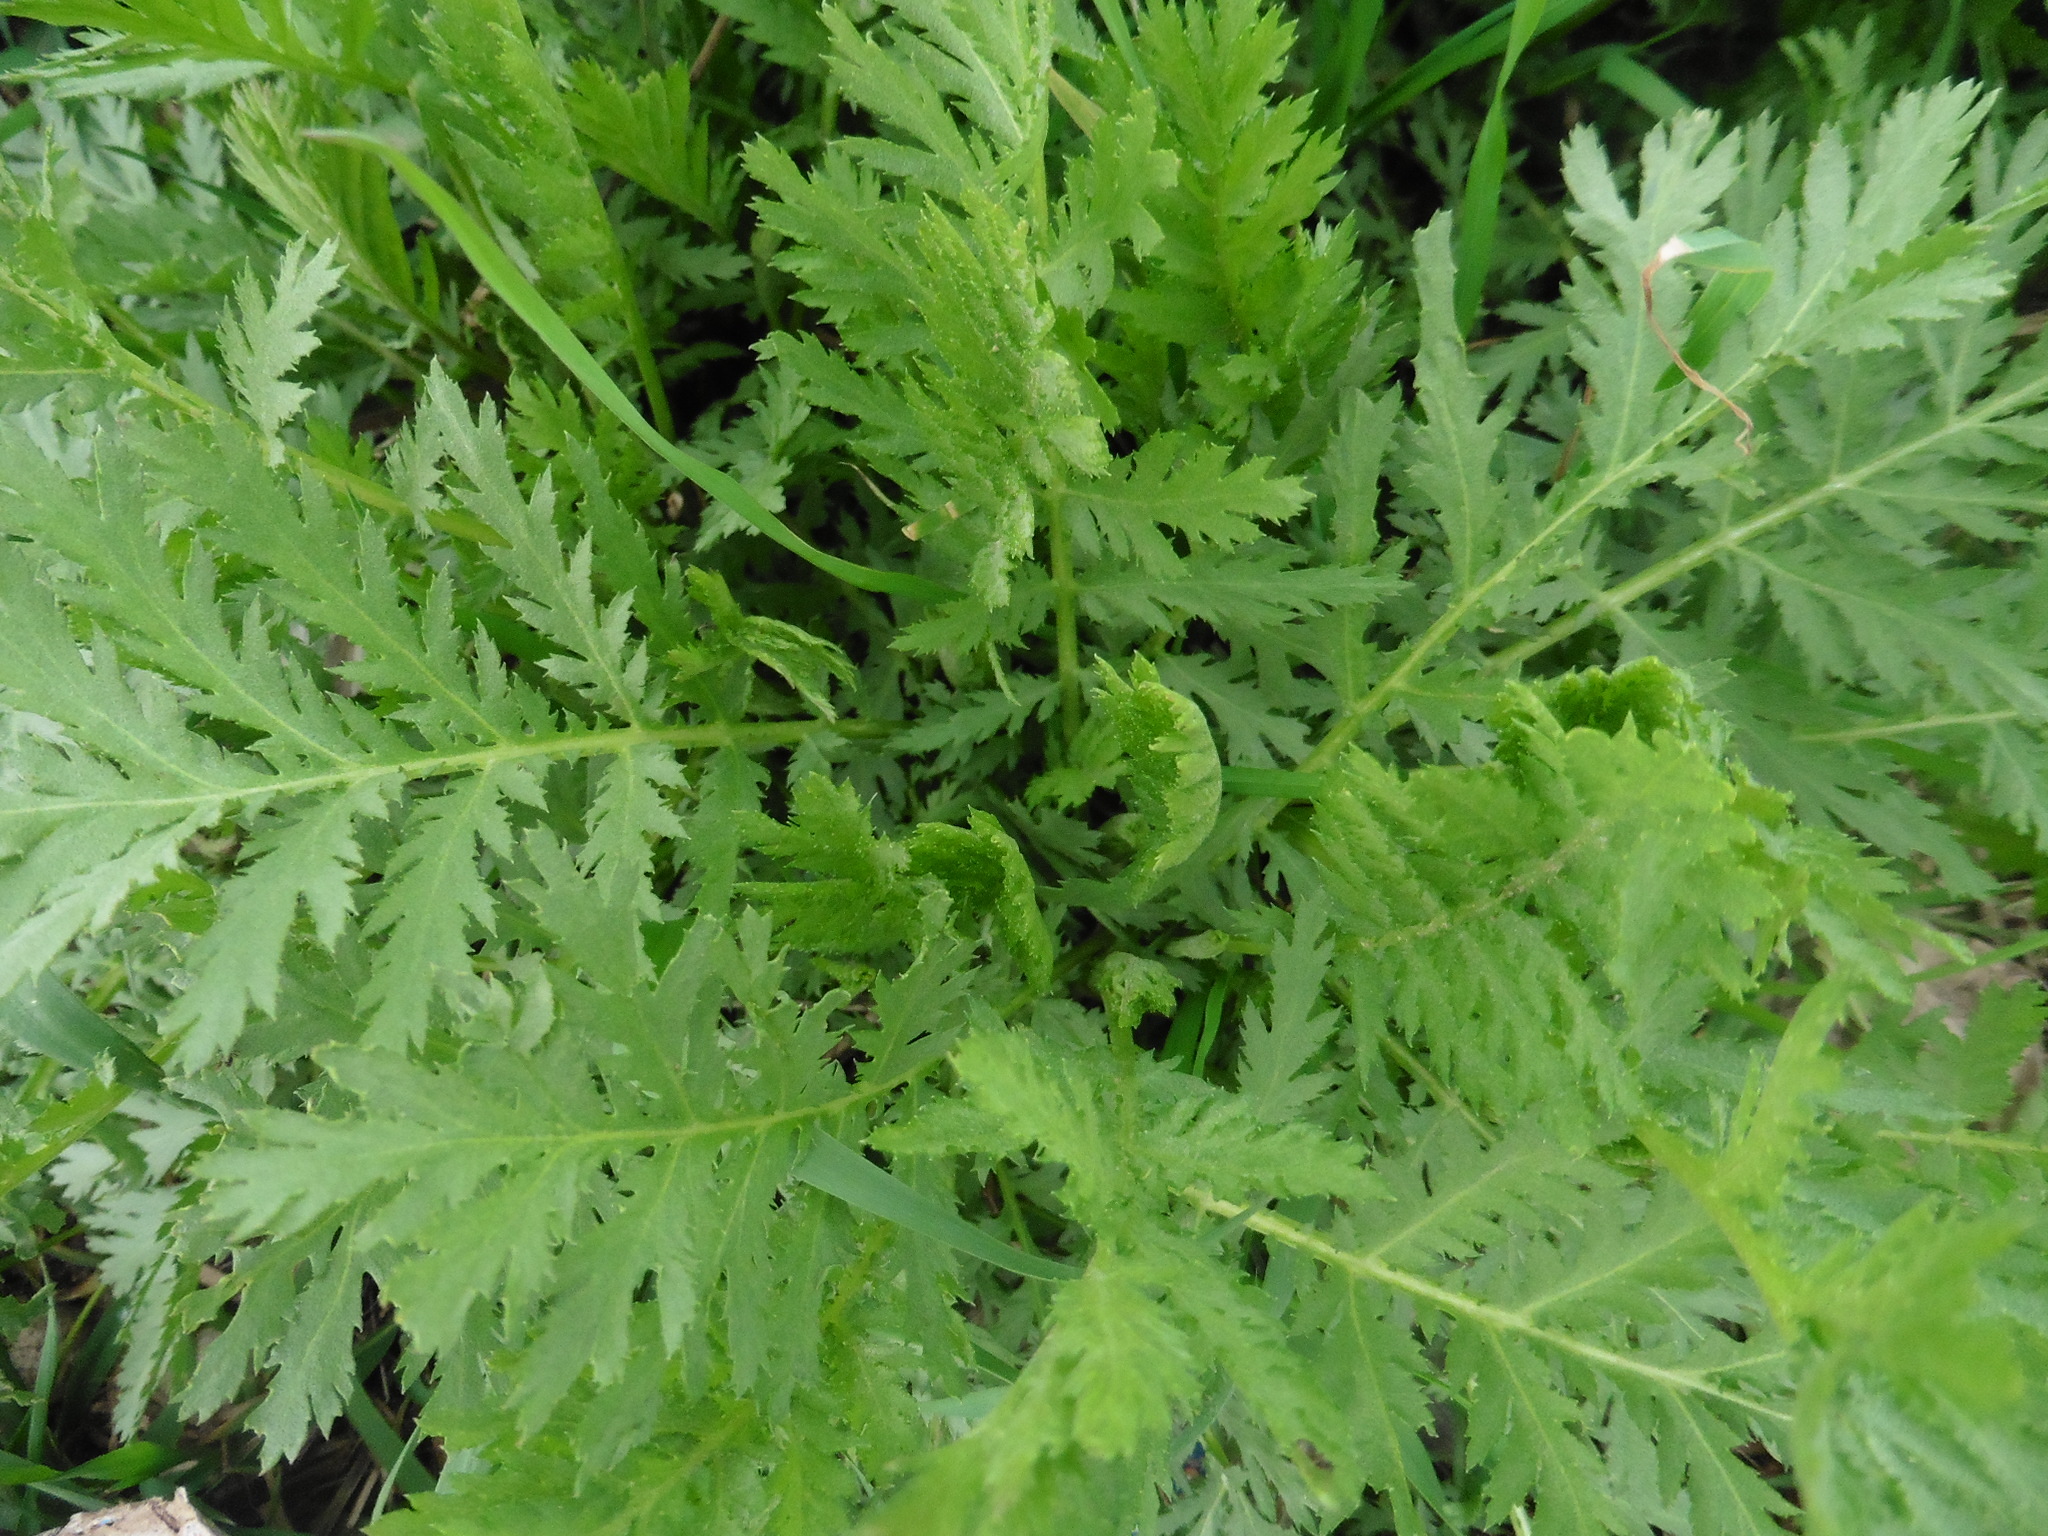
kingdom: Plantae
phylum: Tracheophyta
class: Magnoliopsida
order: Asterales
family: Asteraceae
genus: Tanacetum
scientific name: Tanacetum vulgare
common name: Common tansy
